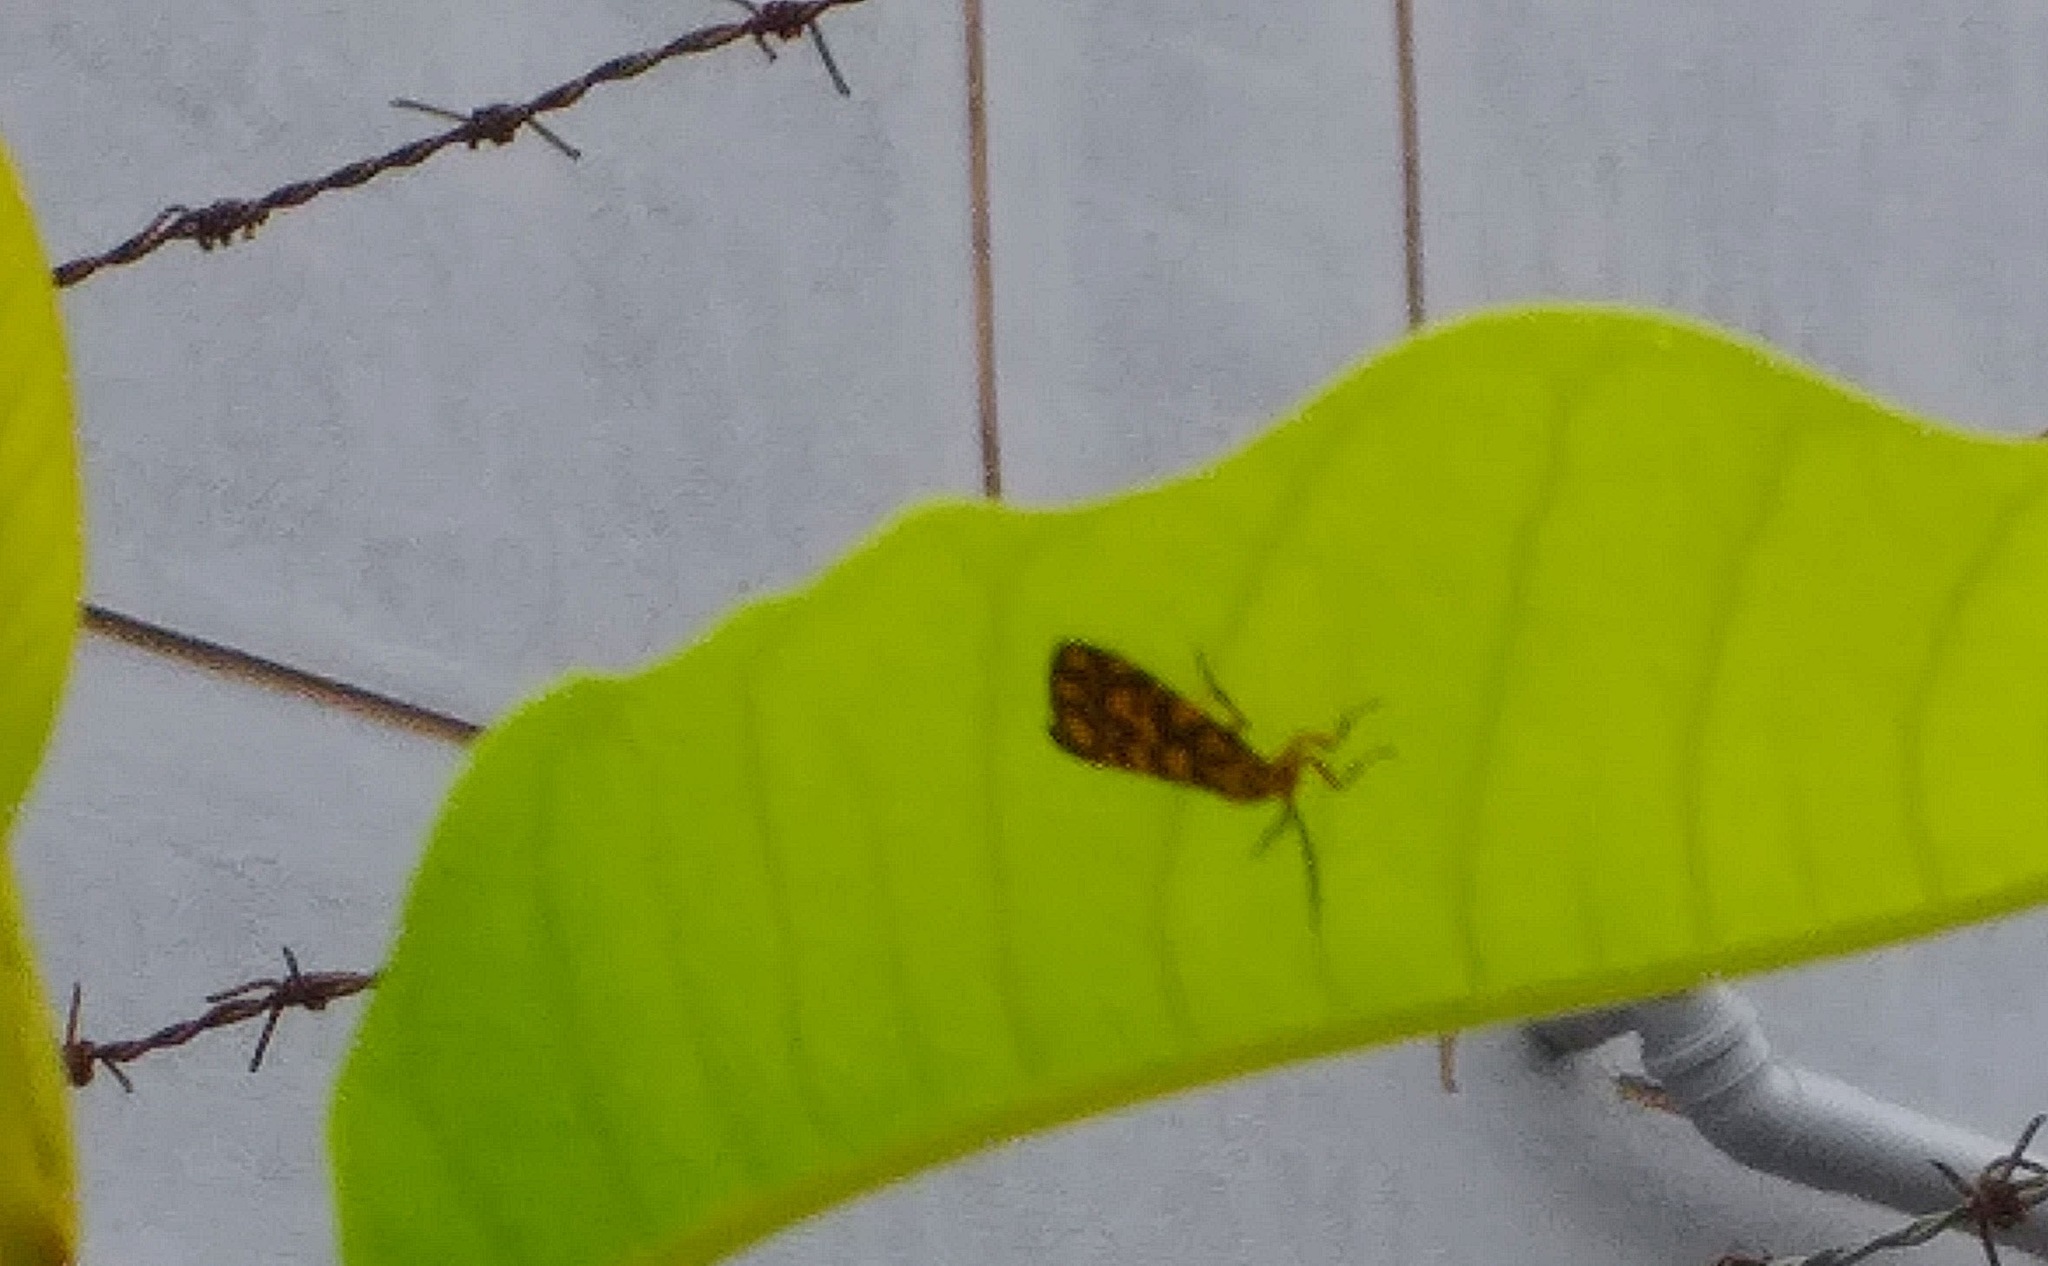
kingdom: Animalia
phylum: Arthropoda
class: Insecta
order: Lepidoptera
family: Erebidae
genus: Nepita
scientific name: Nepita conferta
